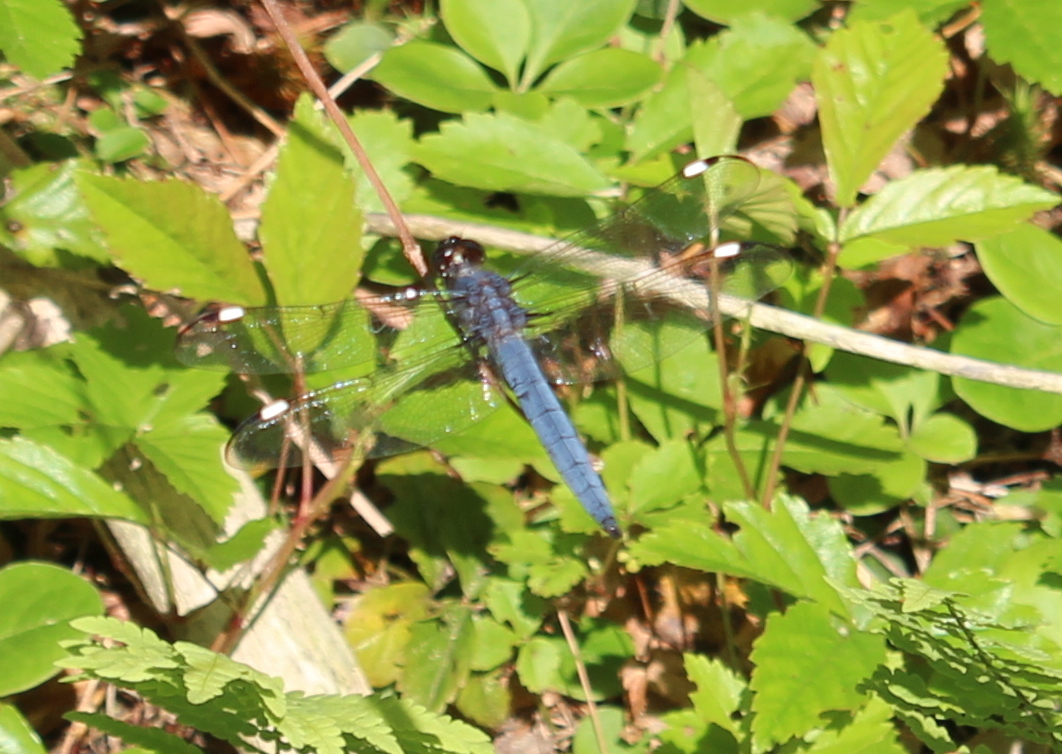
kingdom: Animalia
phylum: Arthropoda
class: Insecta
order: Odonata
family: Libellulidae
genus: Libellula
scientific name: Libellula cyanea
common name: Spangled skimmer
